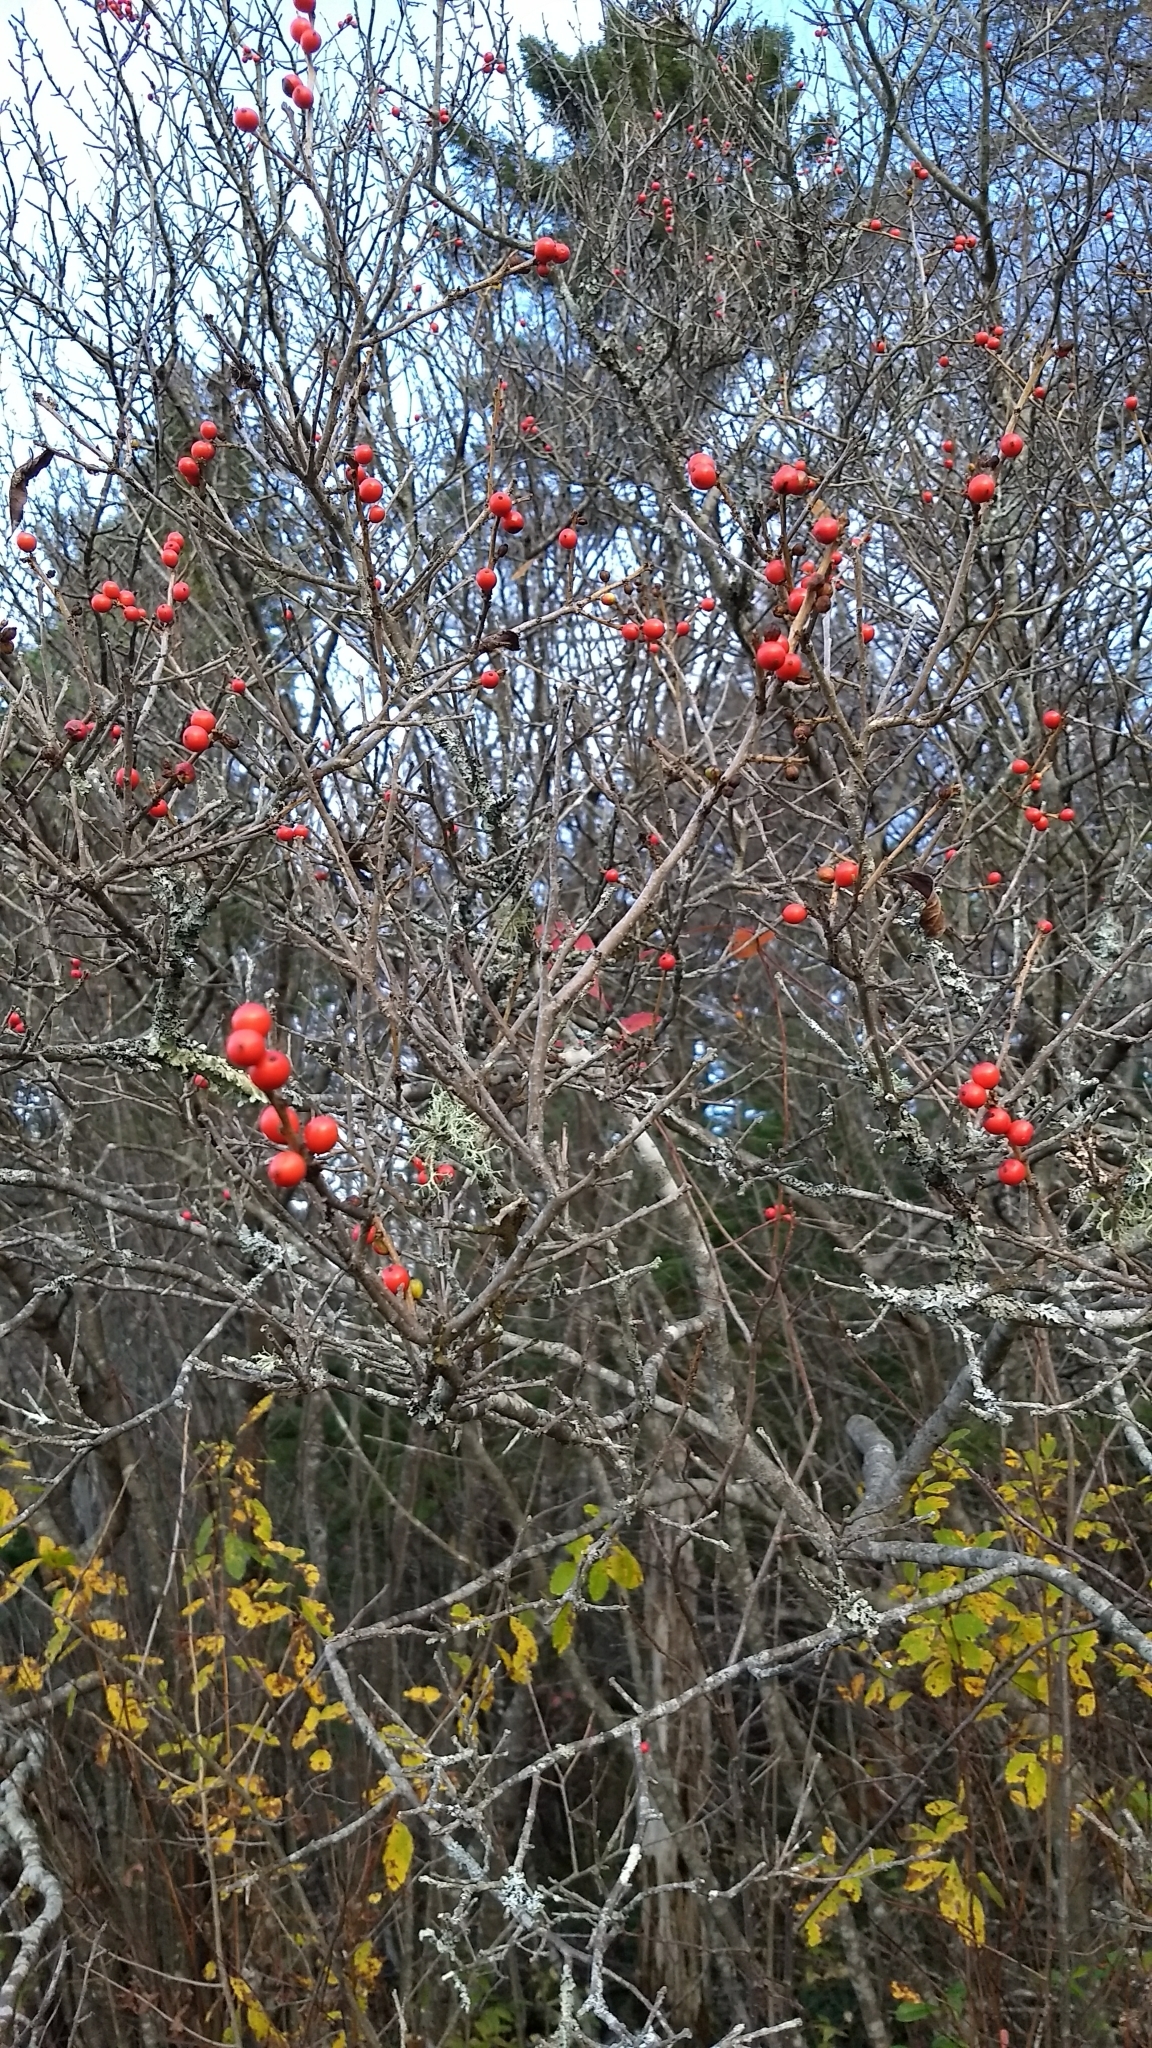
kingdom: Plantae
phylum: Tracheophyta
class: Magnoliopsida
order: Aquifoliales
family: Aquifoliaceae
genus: Ilex
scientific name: Ilex verticillata
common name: Virginia winterberry
